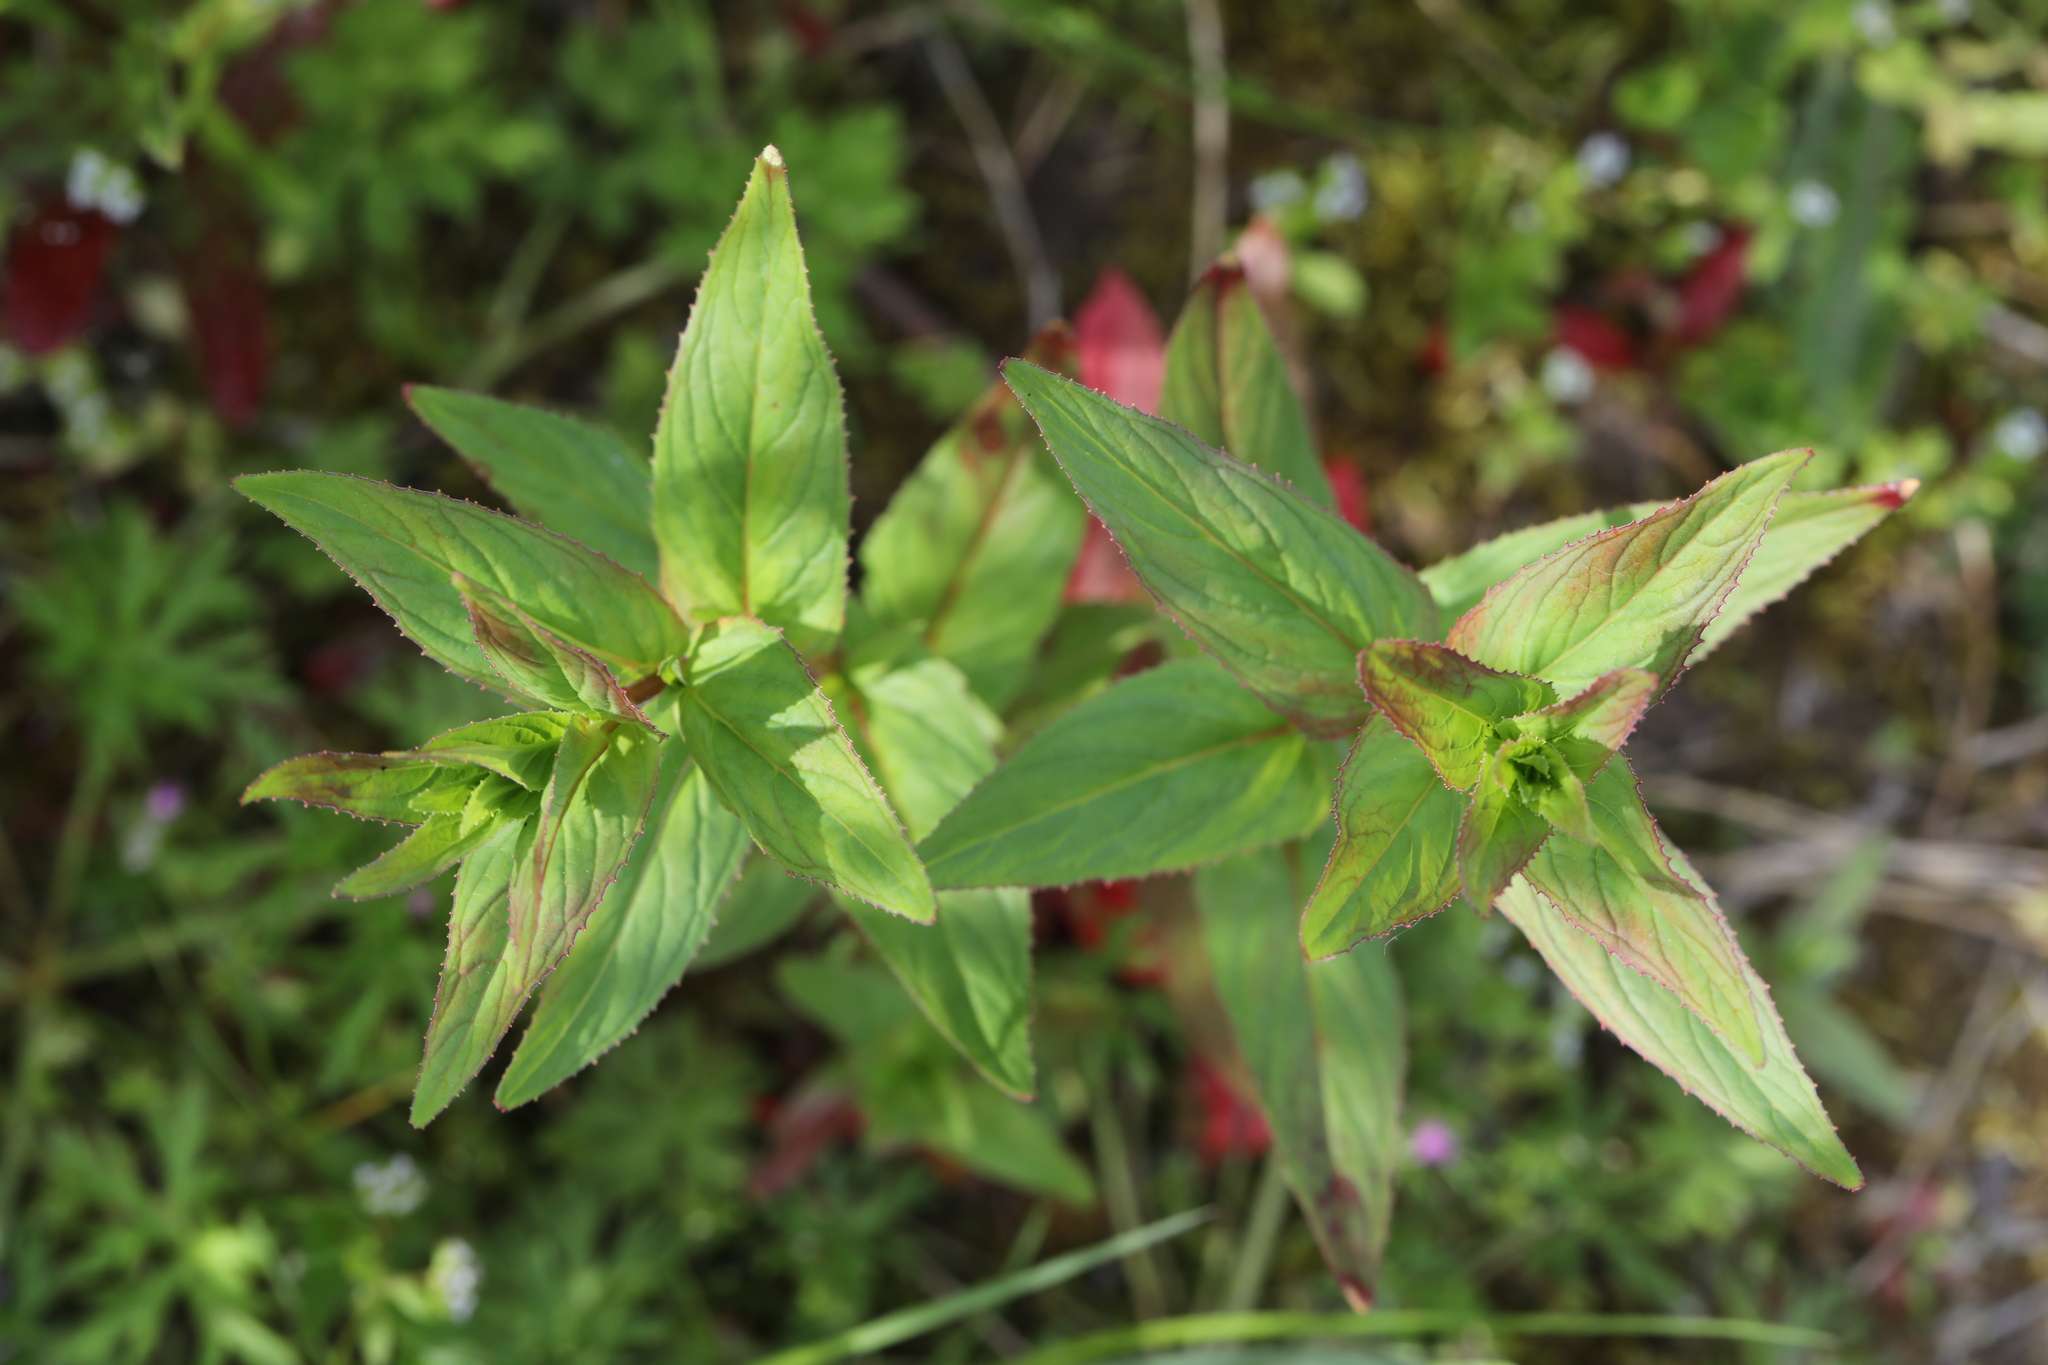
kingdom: Plantae
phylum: Tracheophyta
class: Magnoliopsida
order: Myrtales
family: Onagraceae
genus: Epilobium
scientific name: Epilobium montanum
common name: Broad-leaved willowherb
